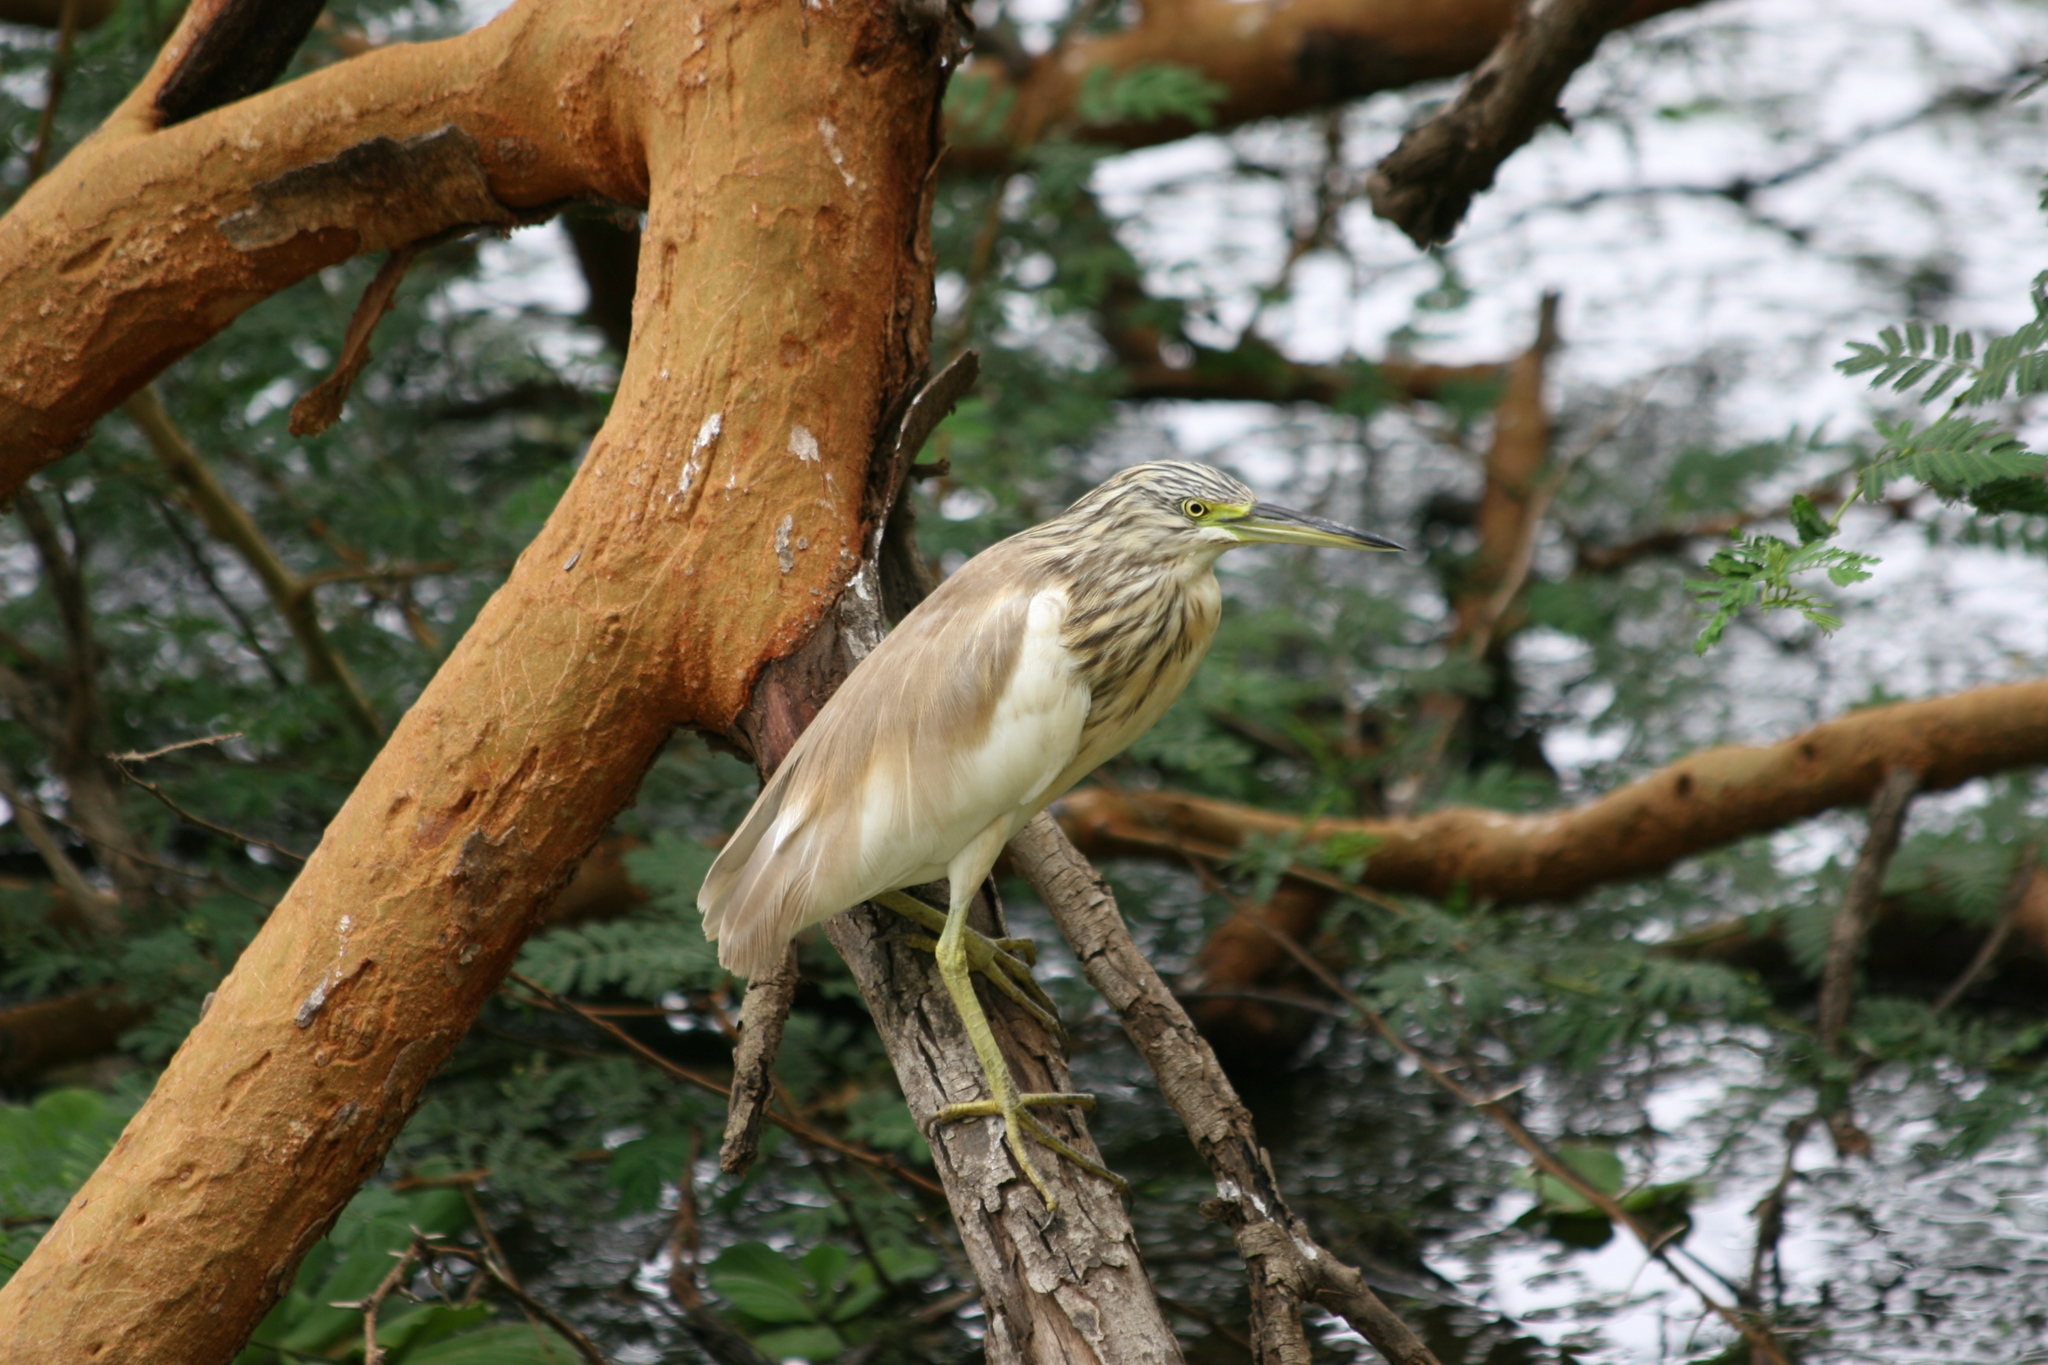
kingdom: Animalia
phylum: Chordata
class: Aves
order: Pelecaniformes
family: Ardeidae
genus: Ardeola
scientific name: Ardeola ralloides
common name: Squacco heron
